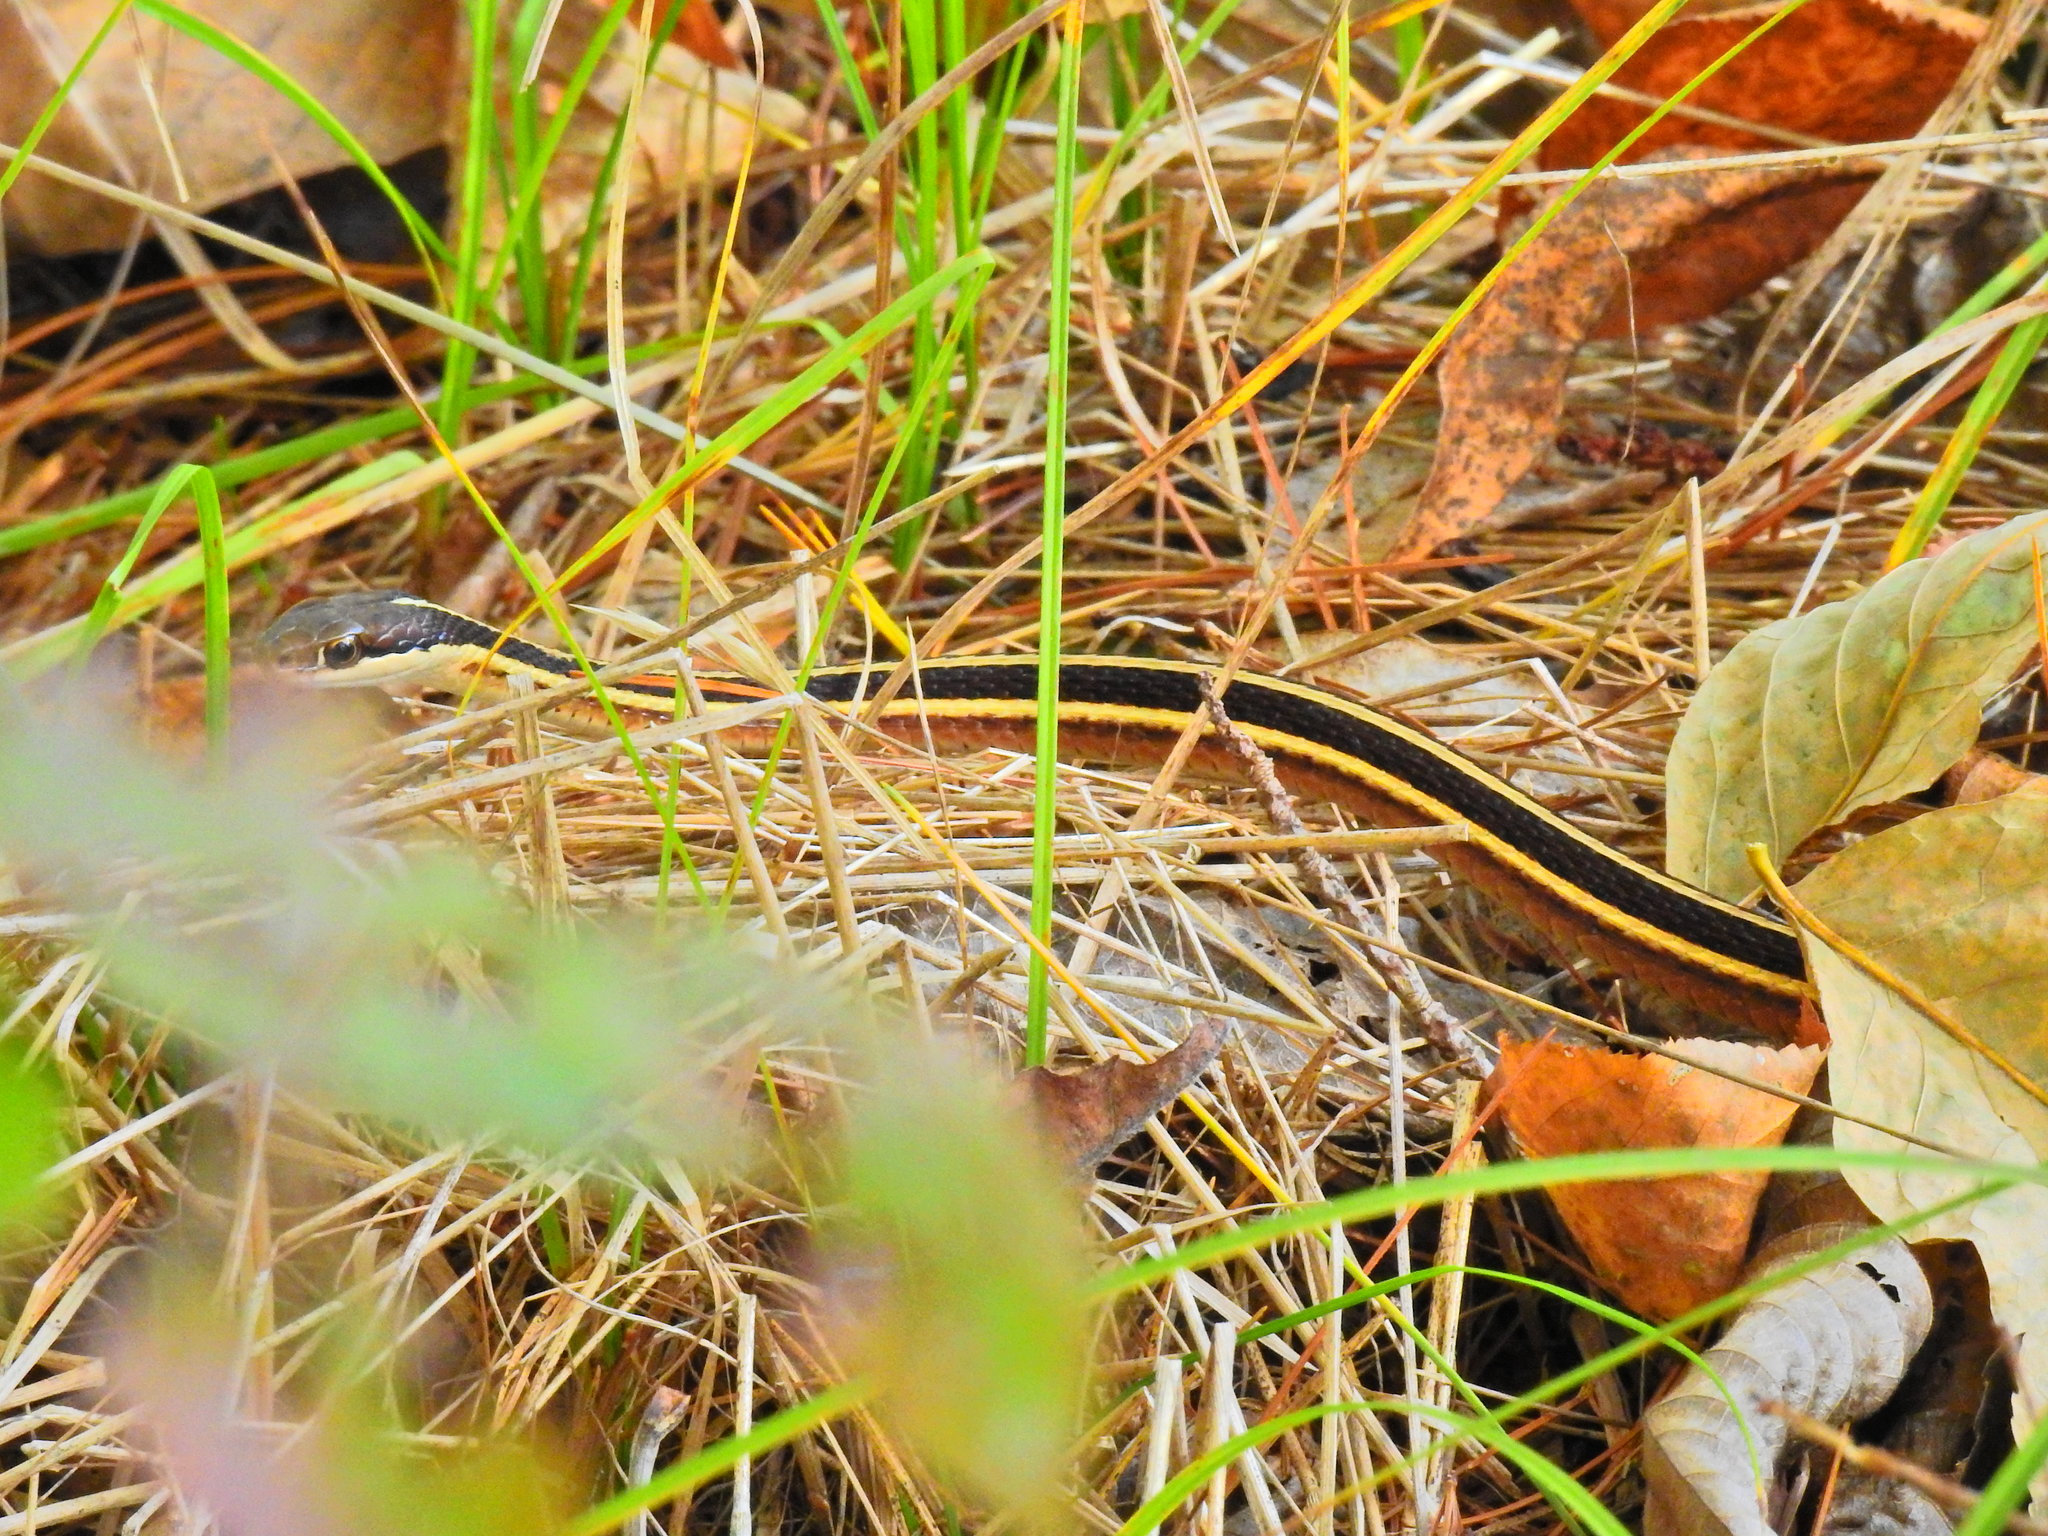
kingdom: Animalia
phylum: Chordata
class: Squamata
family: Colubridae
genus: Thamnophis
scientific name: Thamnophis saurita
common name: Eastern ribbonsnake
